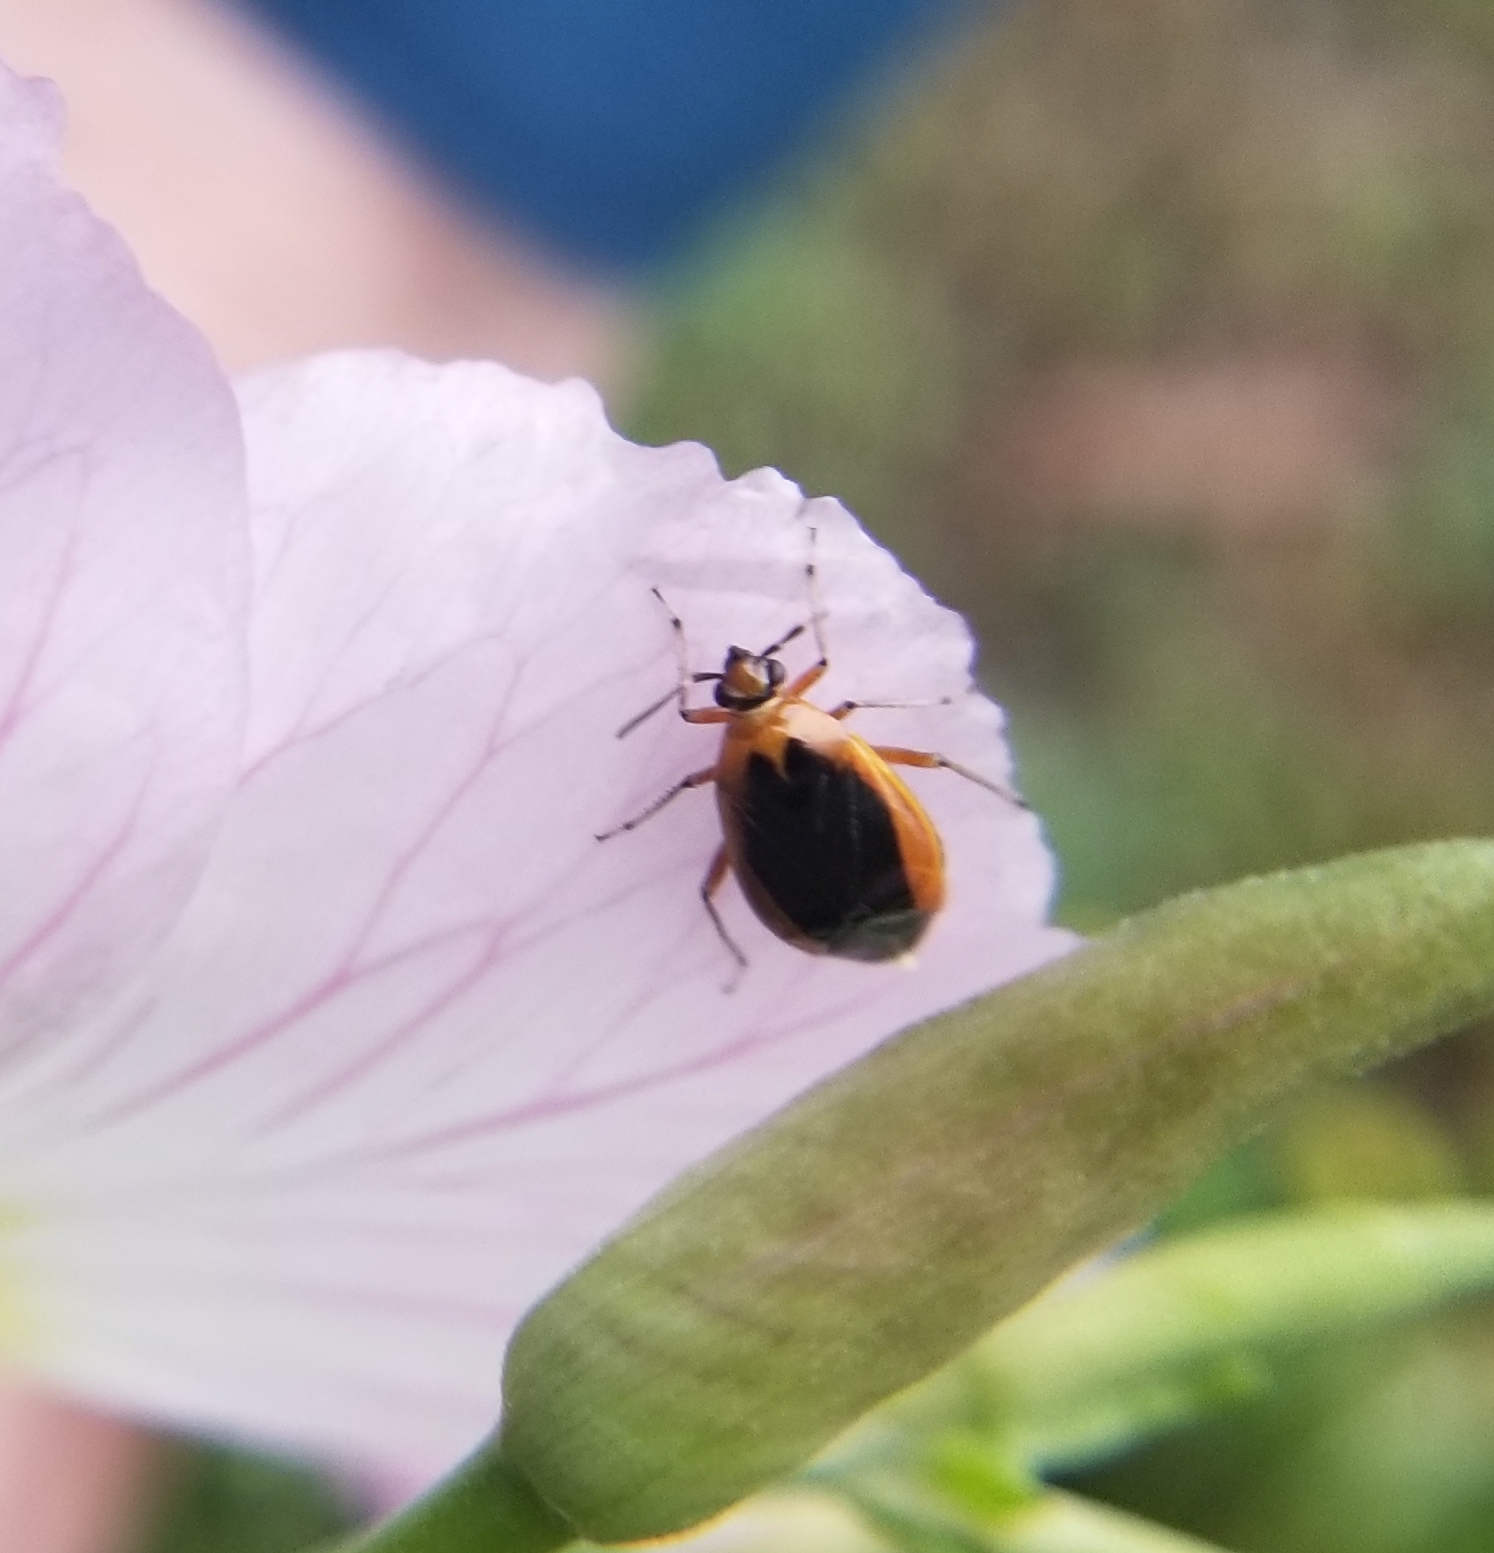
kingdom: Animalia
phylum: Arthropoda
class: Insecta
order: Hemiptera
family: Miridae
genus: Metriorrhynchomiris
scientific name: Metriorrhynchomiris dislocatus
